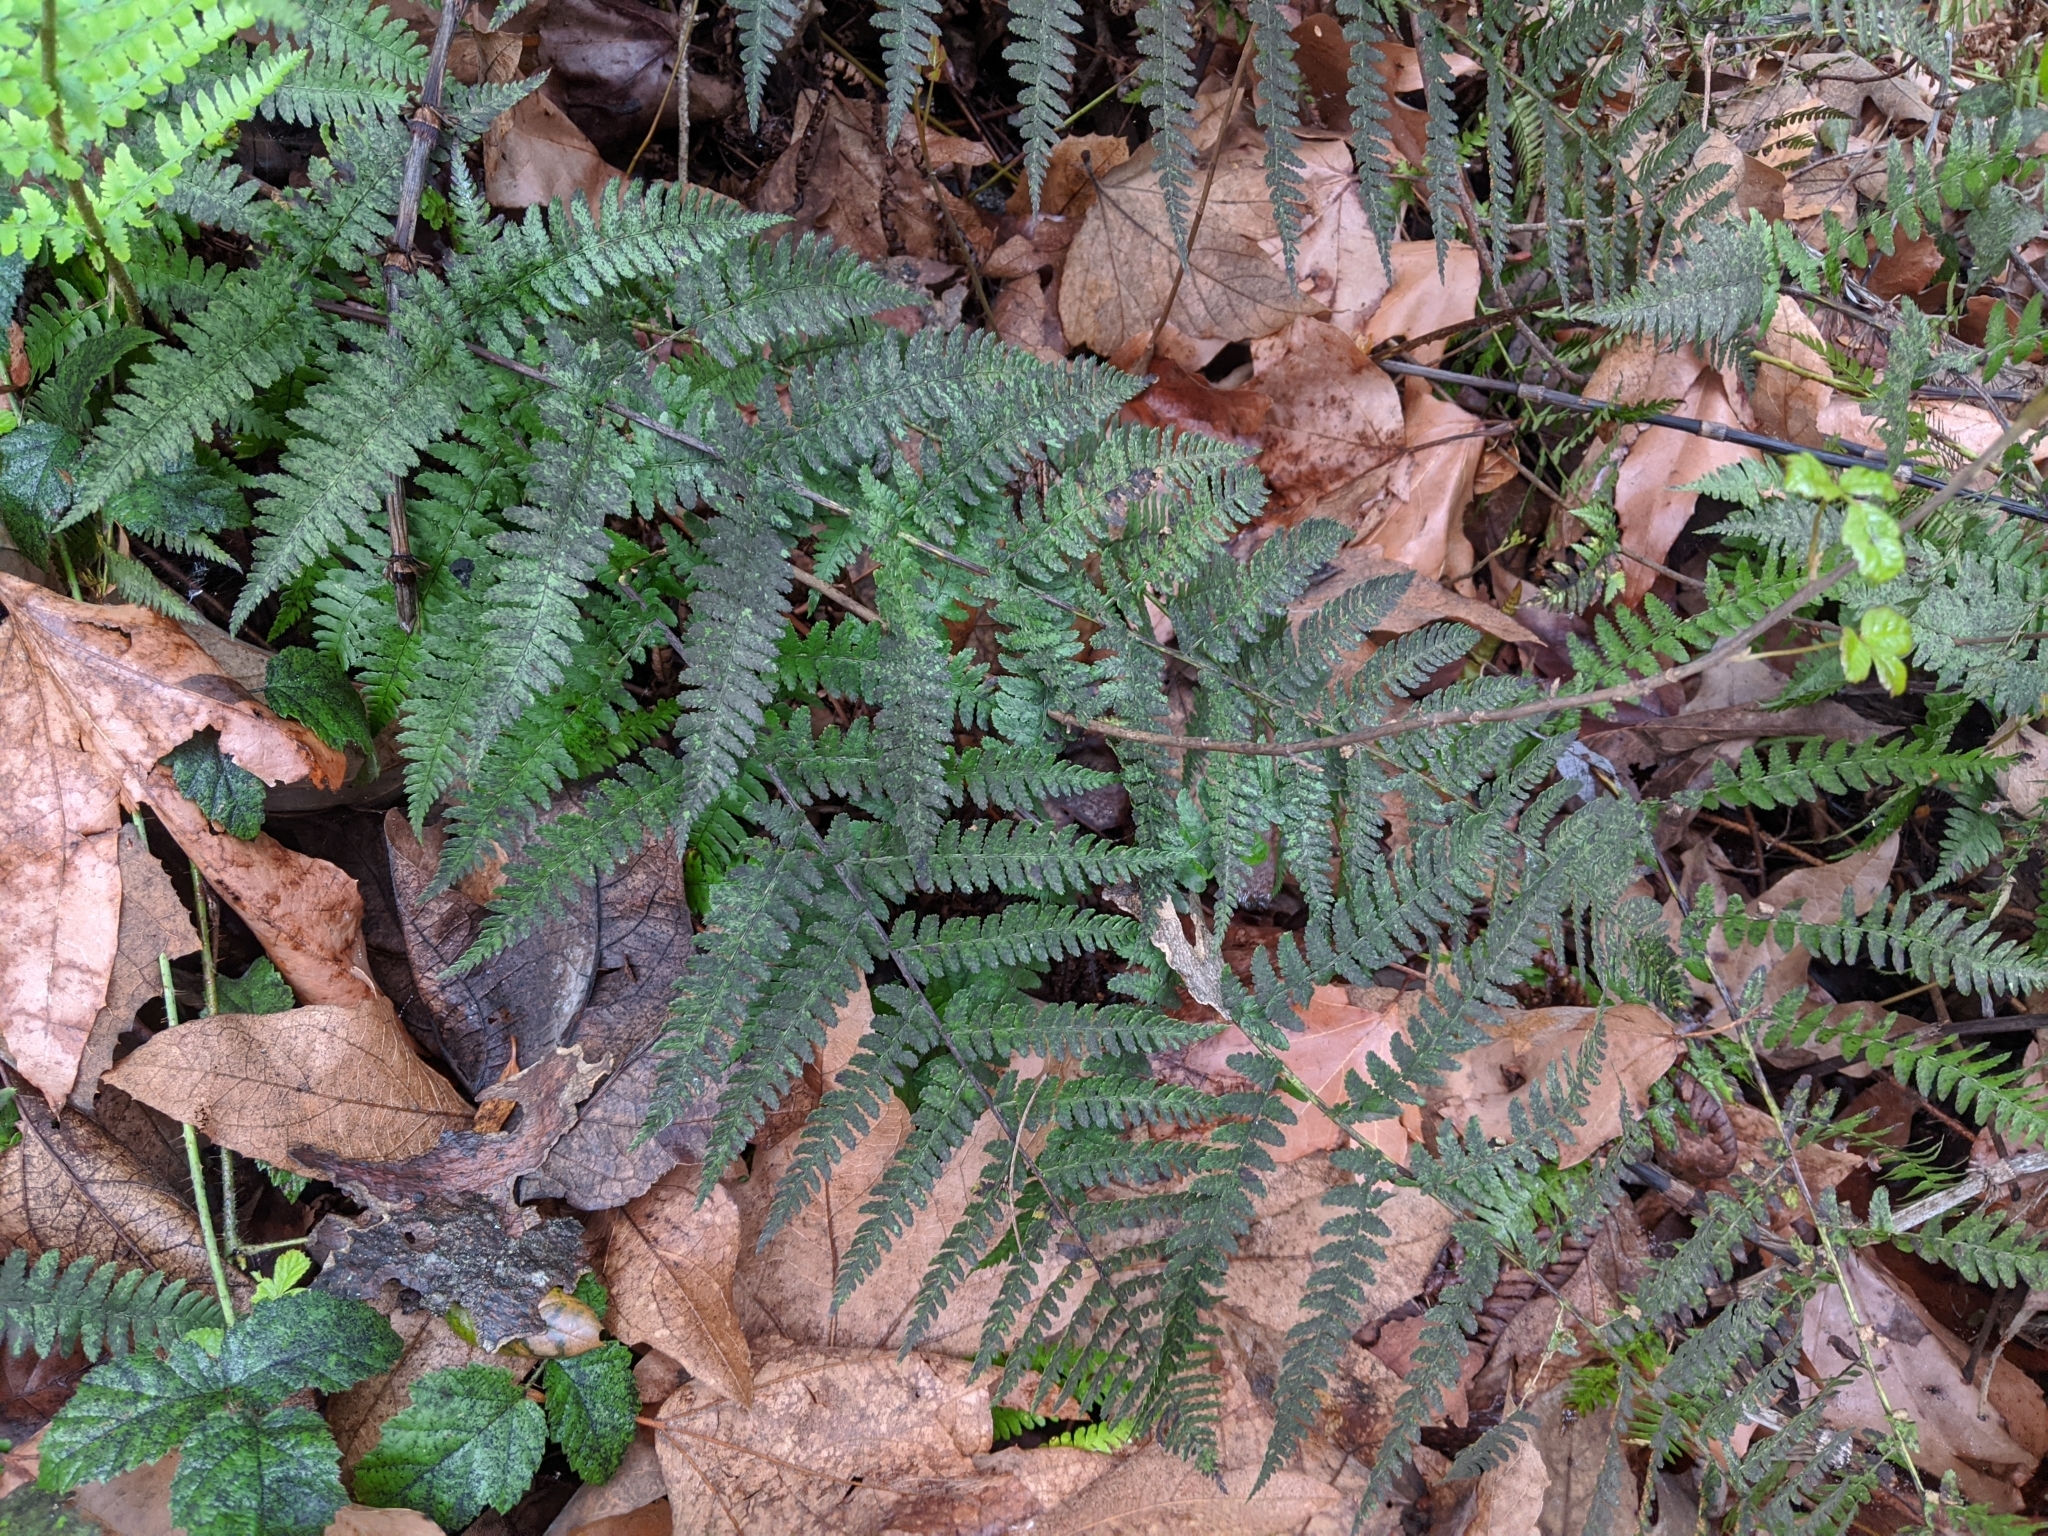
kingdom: Plantae
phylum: Tracheophyta
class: Polypodiopsida
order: Polypodiales
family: Dryopteridaceae
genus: Dryopteris
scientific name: Dryopteris arguta
